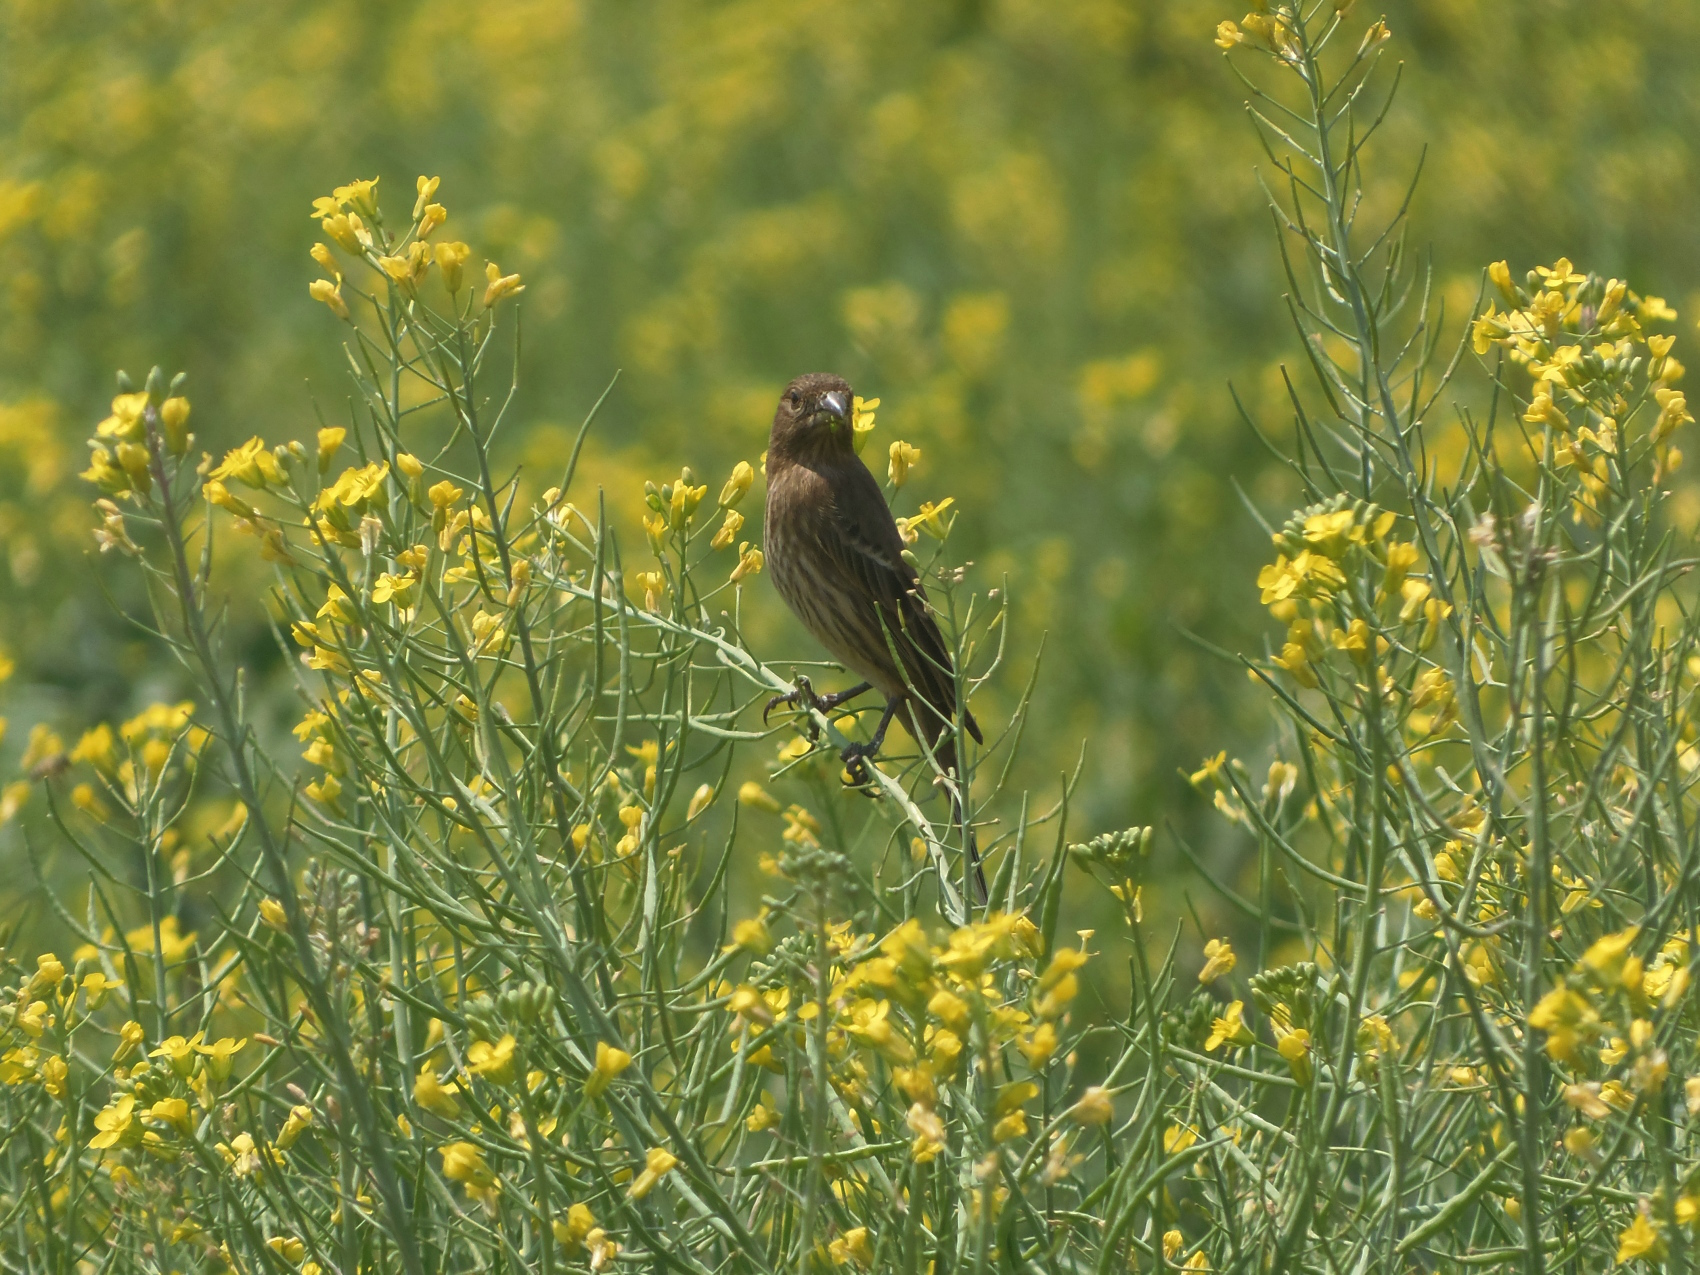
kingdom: Animalia
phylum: Chordata
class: Aves
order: Passeriformes
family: Fringillidae
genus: Haemorhous
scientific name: Haemorhous mexicanus
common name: House finch
